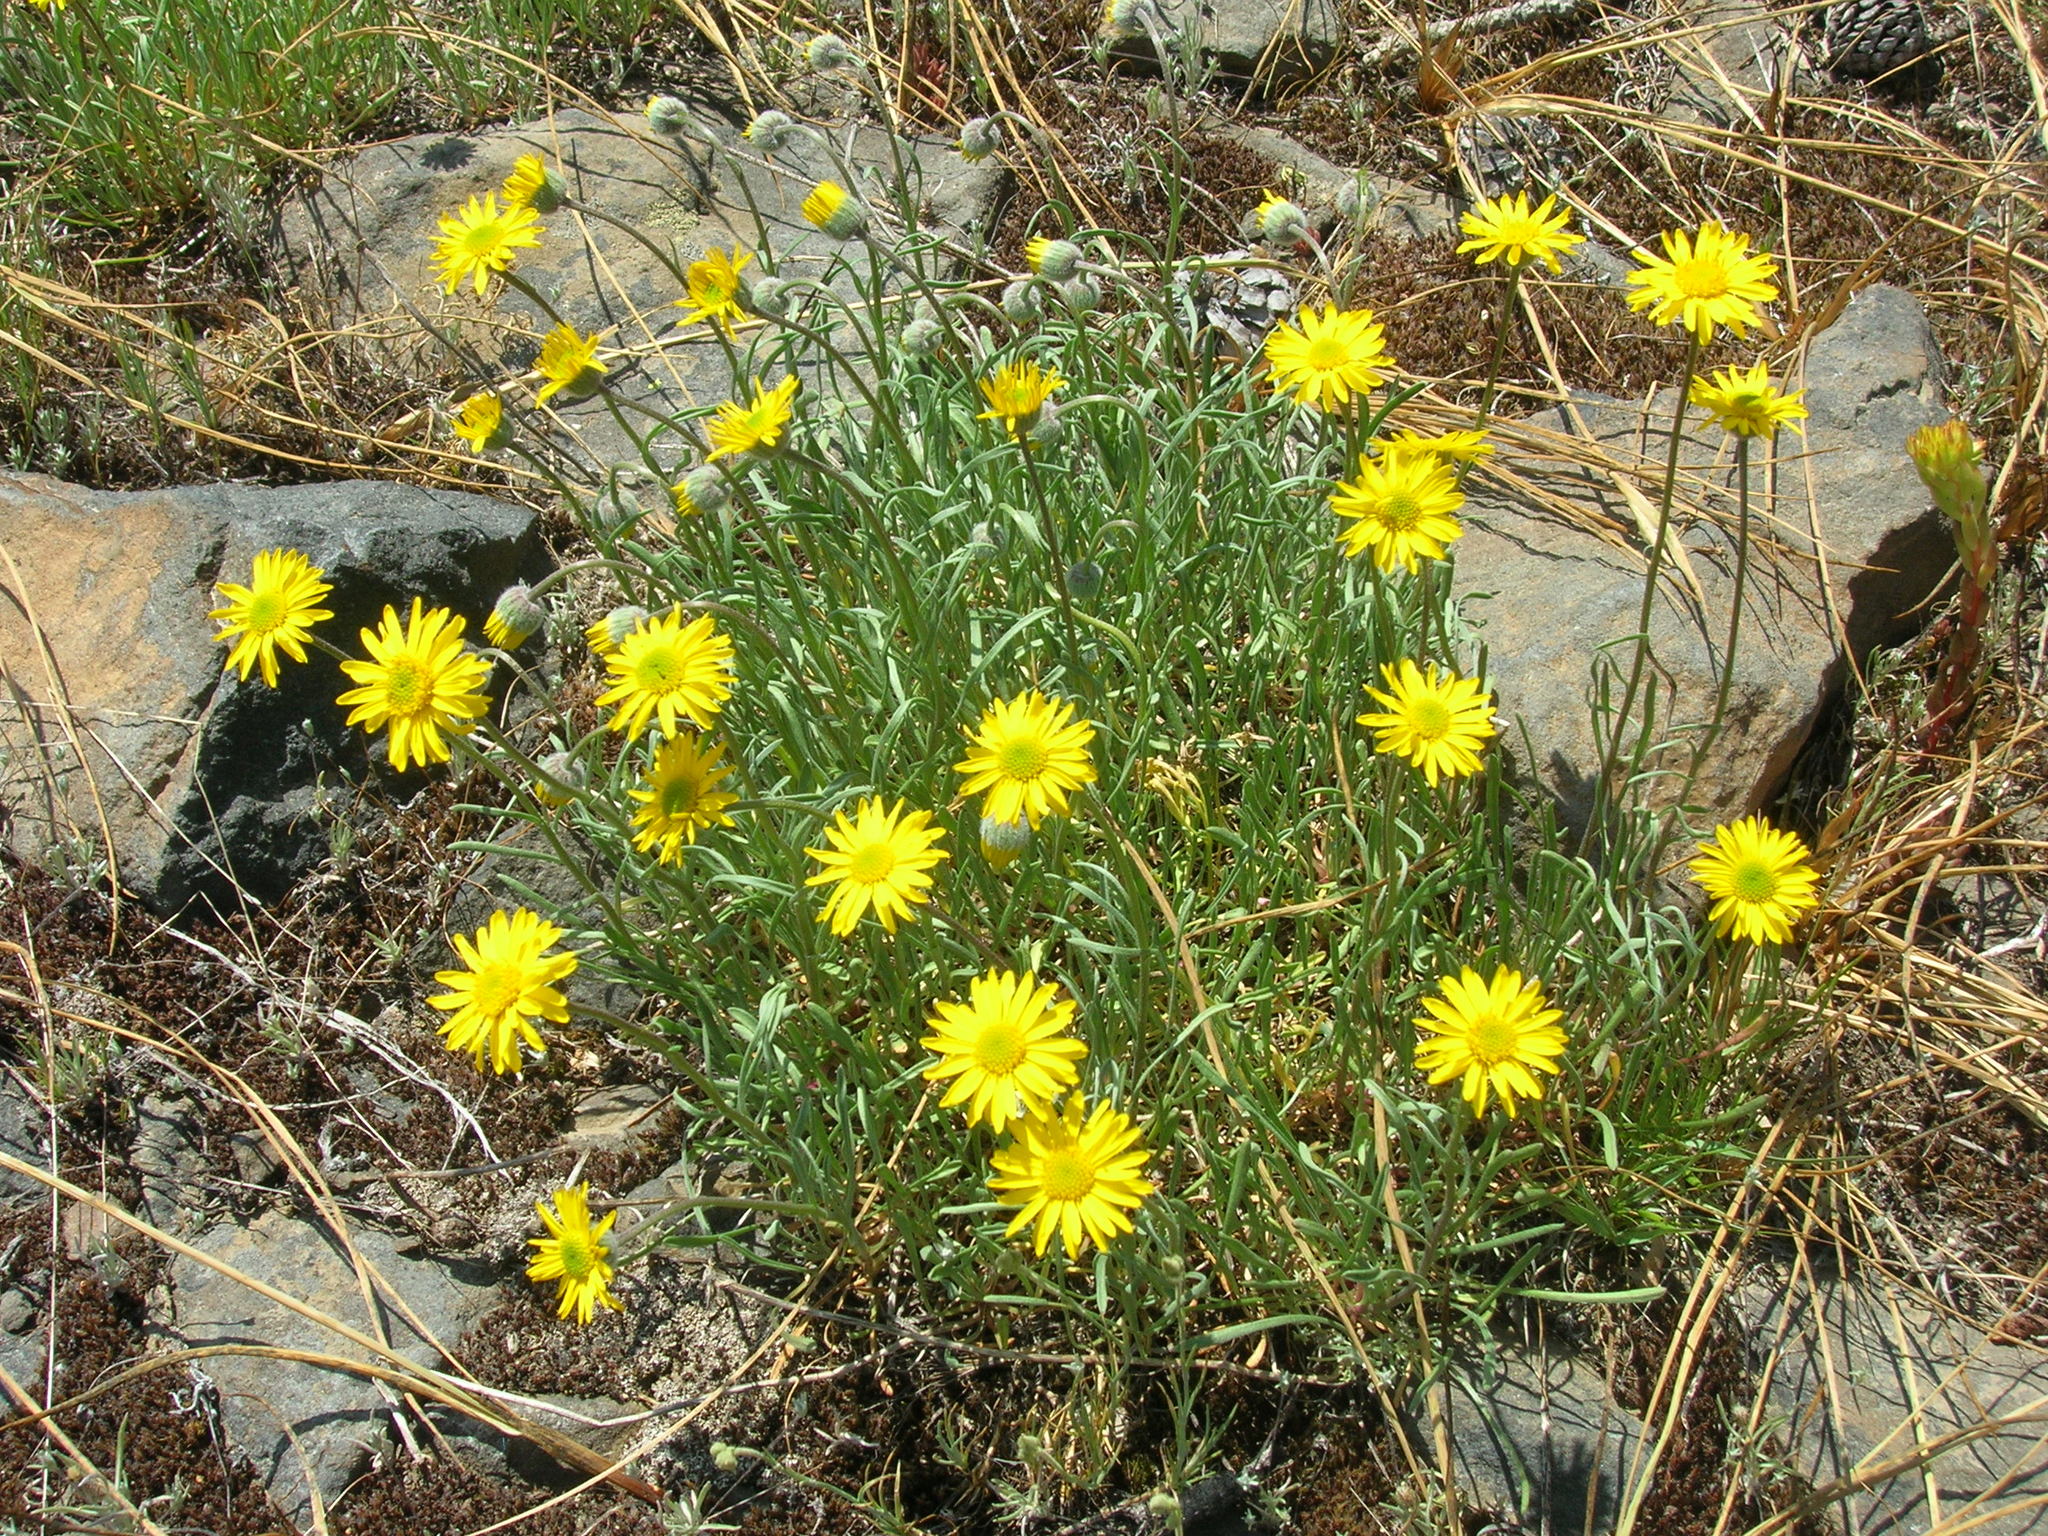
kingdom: Plantae
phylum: Tracheophyta
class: Magnoliopsida
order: Asterales
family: Asteraceae
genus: Erigeron
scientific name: Erigeron linearis
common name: Desert yellow fleabane
